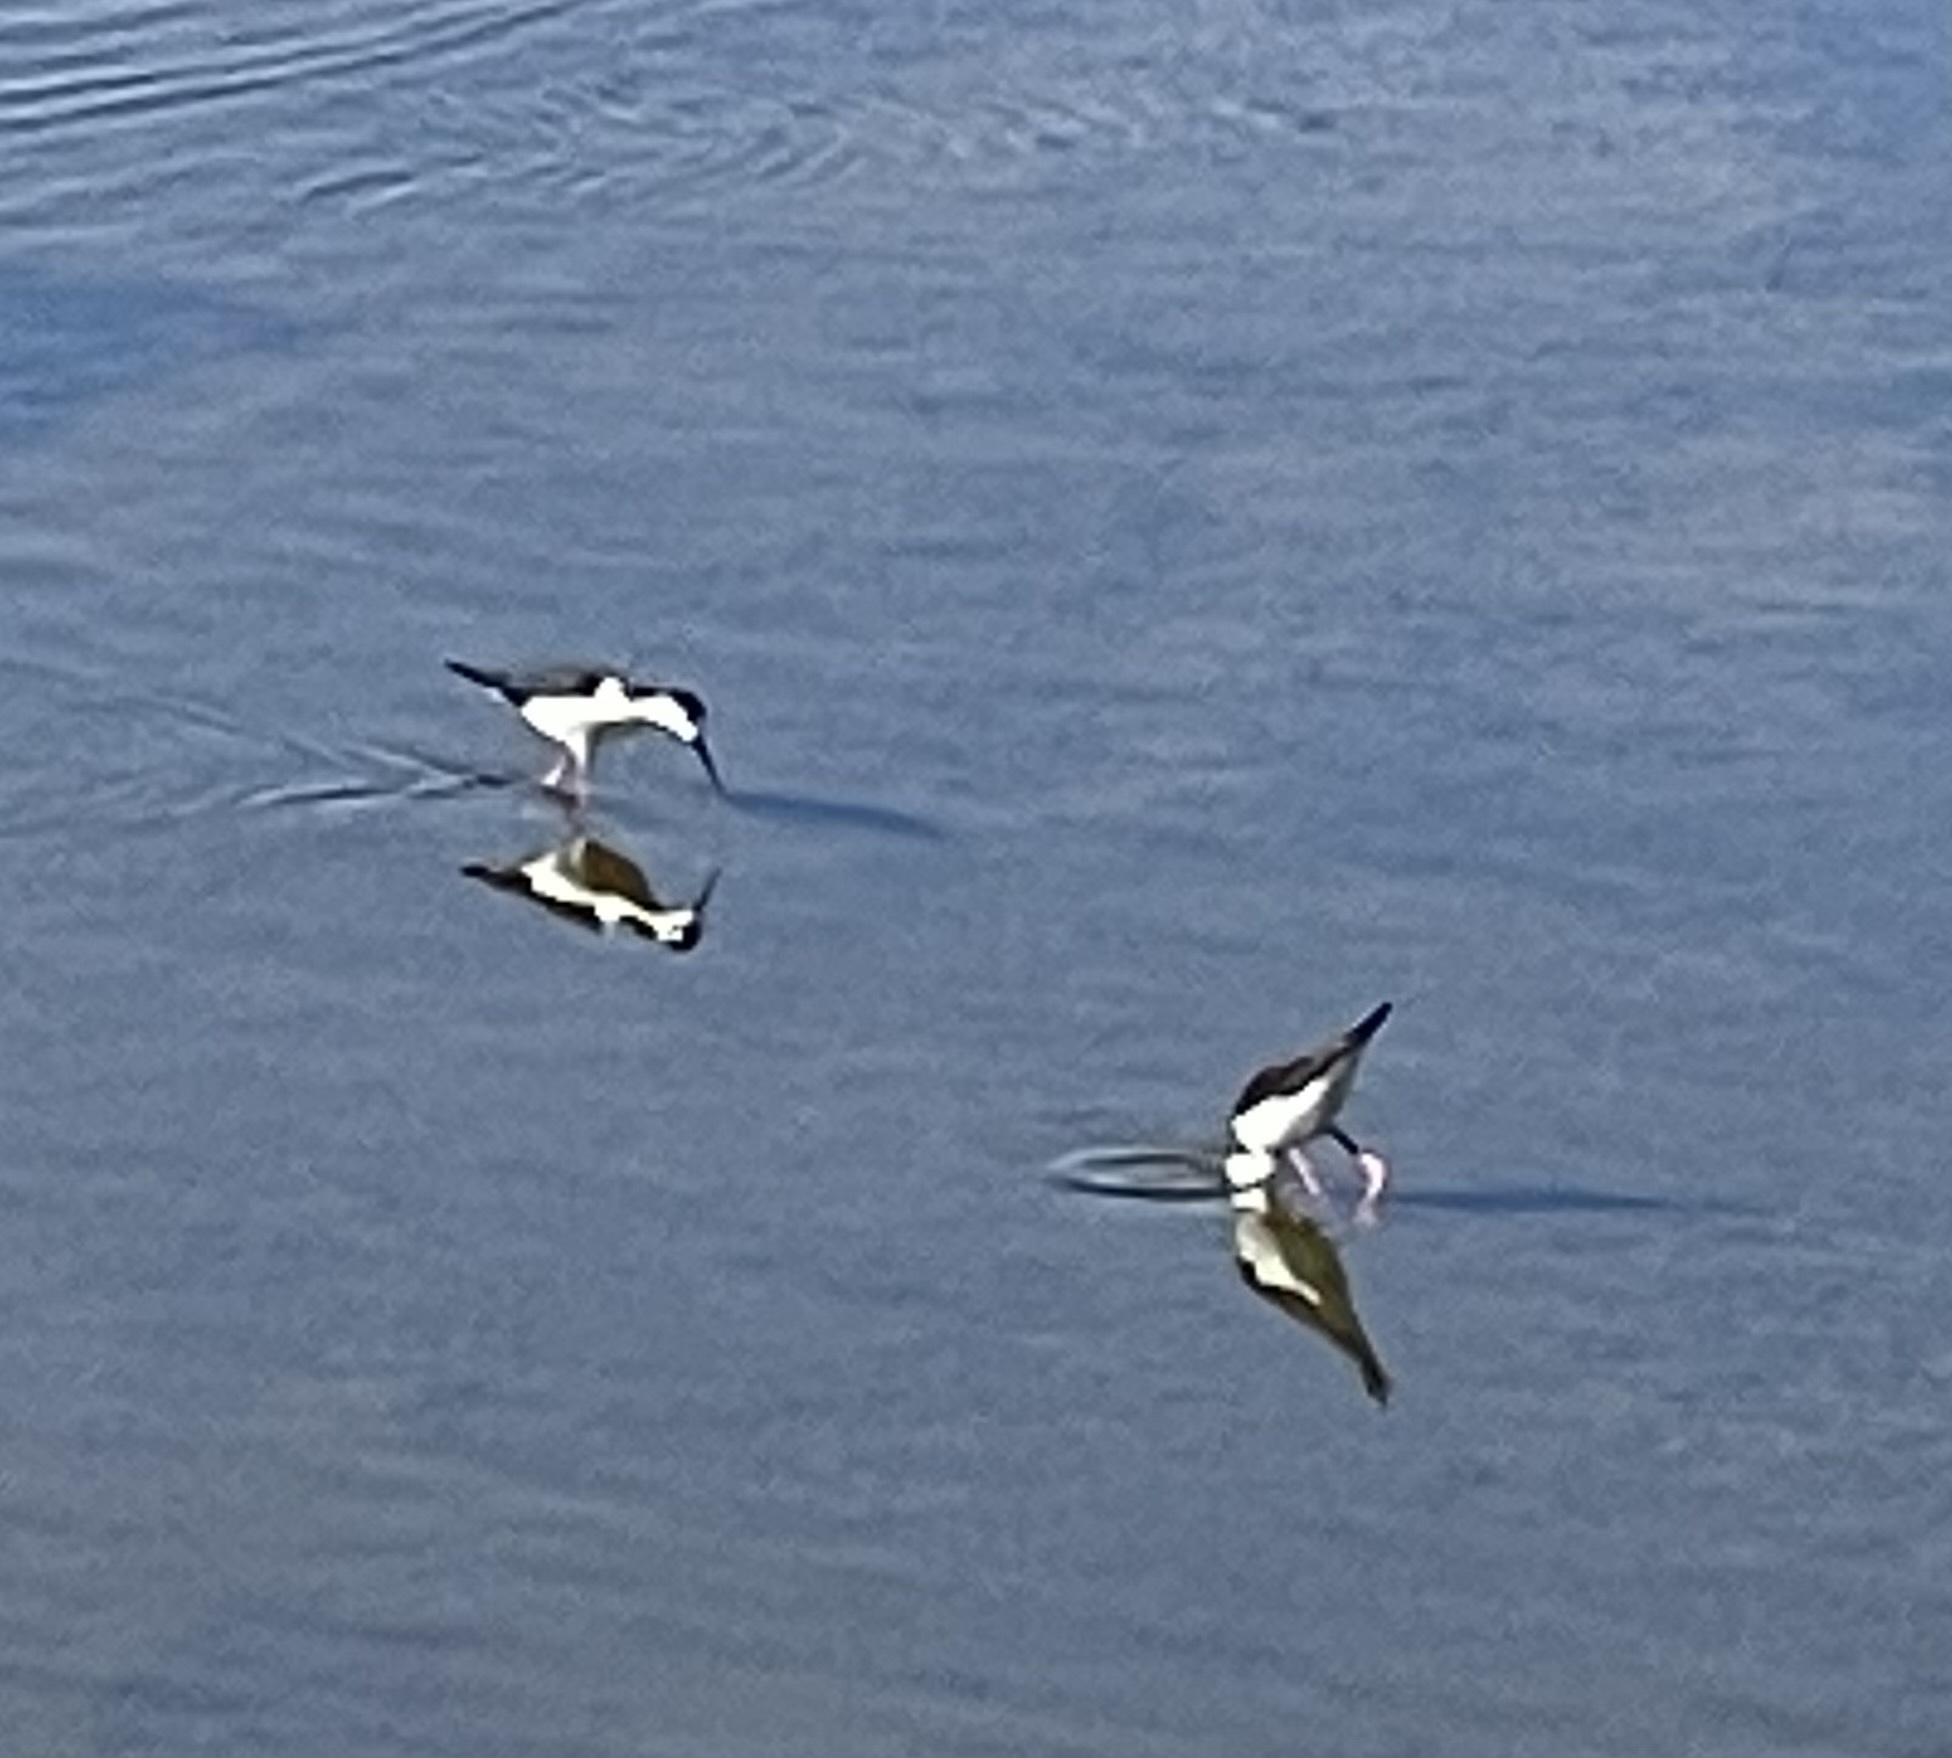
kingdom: Animalia
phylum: Chordata
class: Aves
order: Charadriiformes
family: Recurvirostridae
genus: Himantopus
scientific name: Himantopus mexicanus
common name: Black-necked stilt
